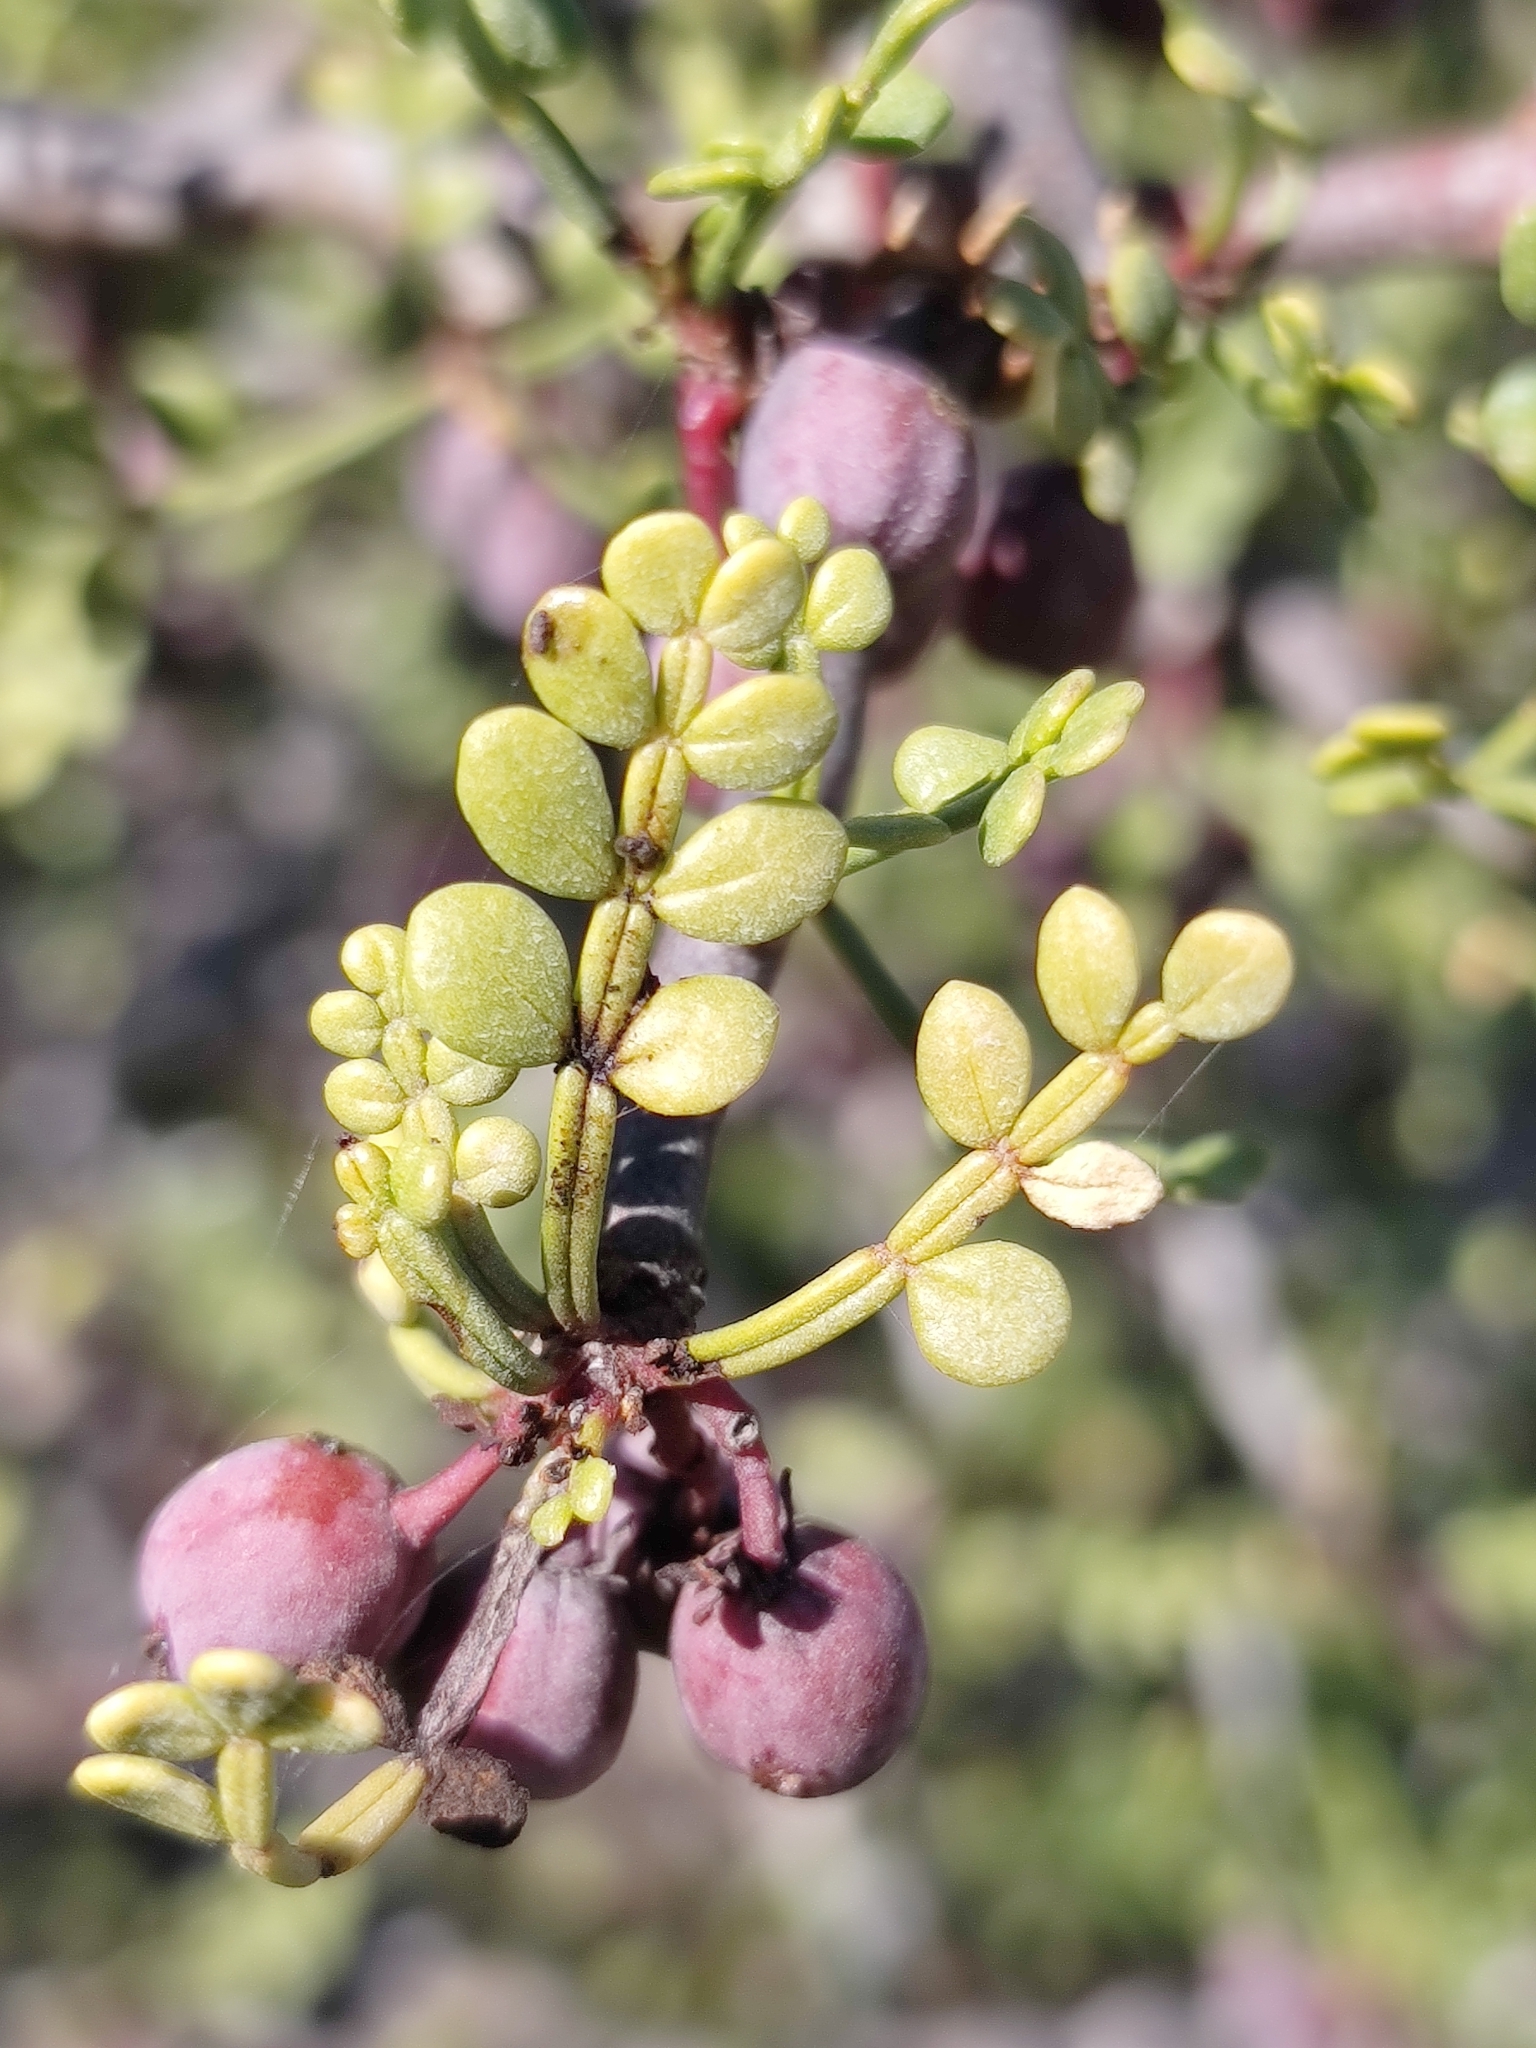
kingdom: Plantae
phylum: Tracheophyta
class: Magnoliopsida
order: Sapindales
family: Burseraceae
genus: Bursera
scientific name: Bursera exequielii
